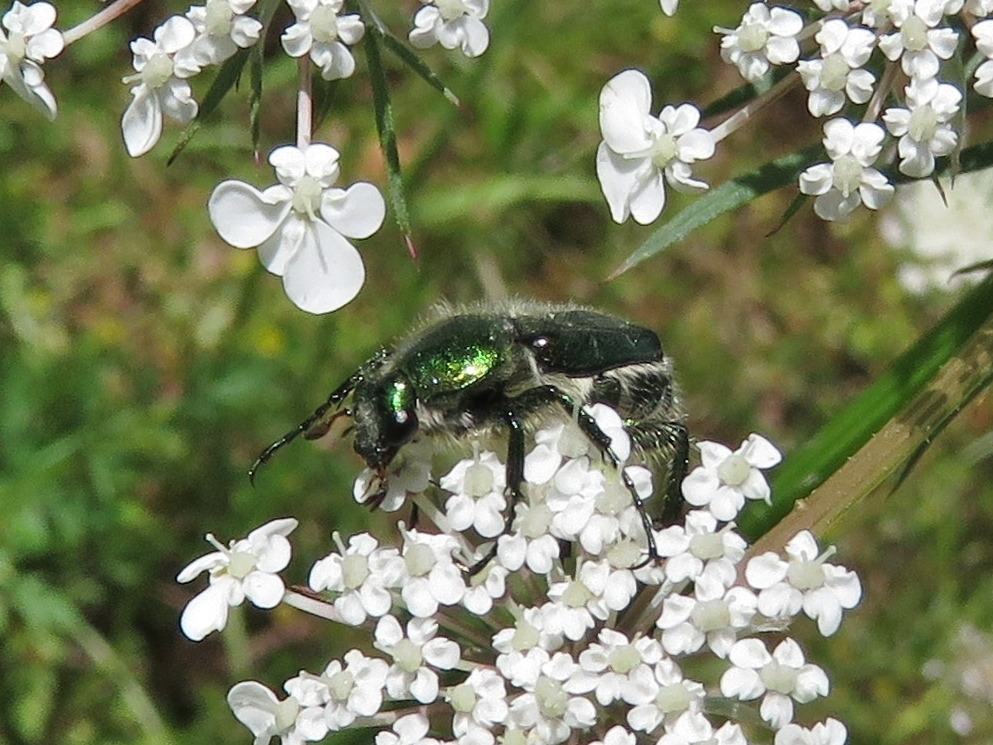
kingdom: Animalia
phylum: Arthropoda
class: Insecta
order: Coleoptera
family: Scarabaeidae
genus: Trichiotinus
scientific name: Trichiotinus lunulatus
